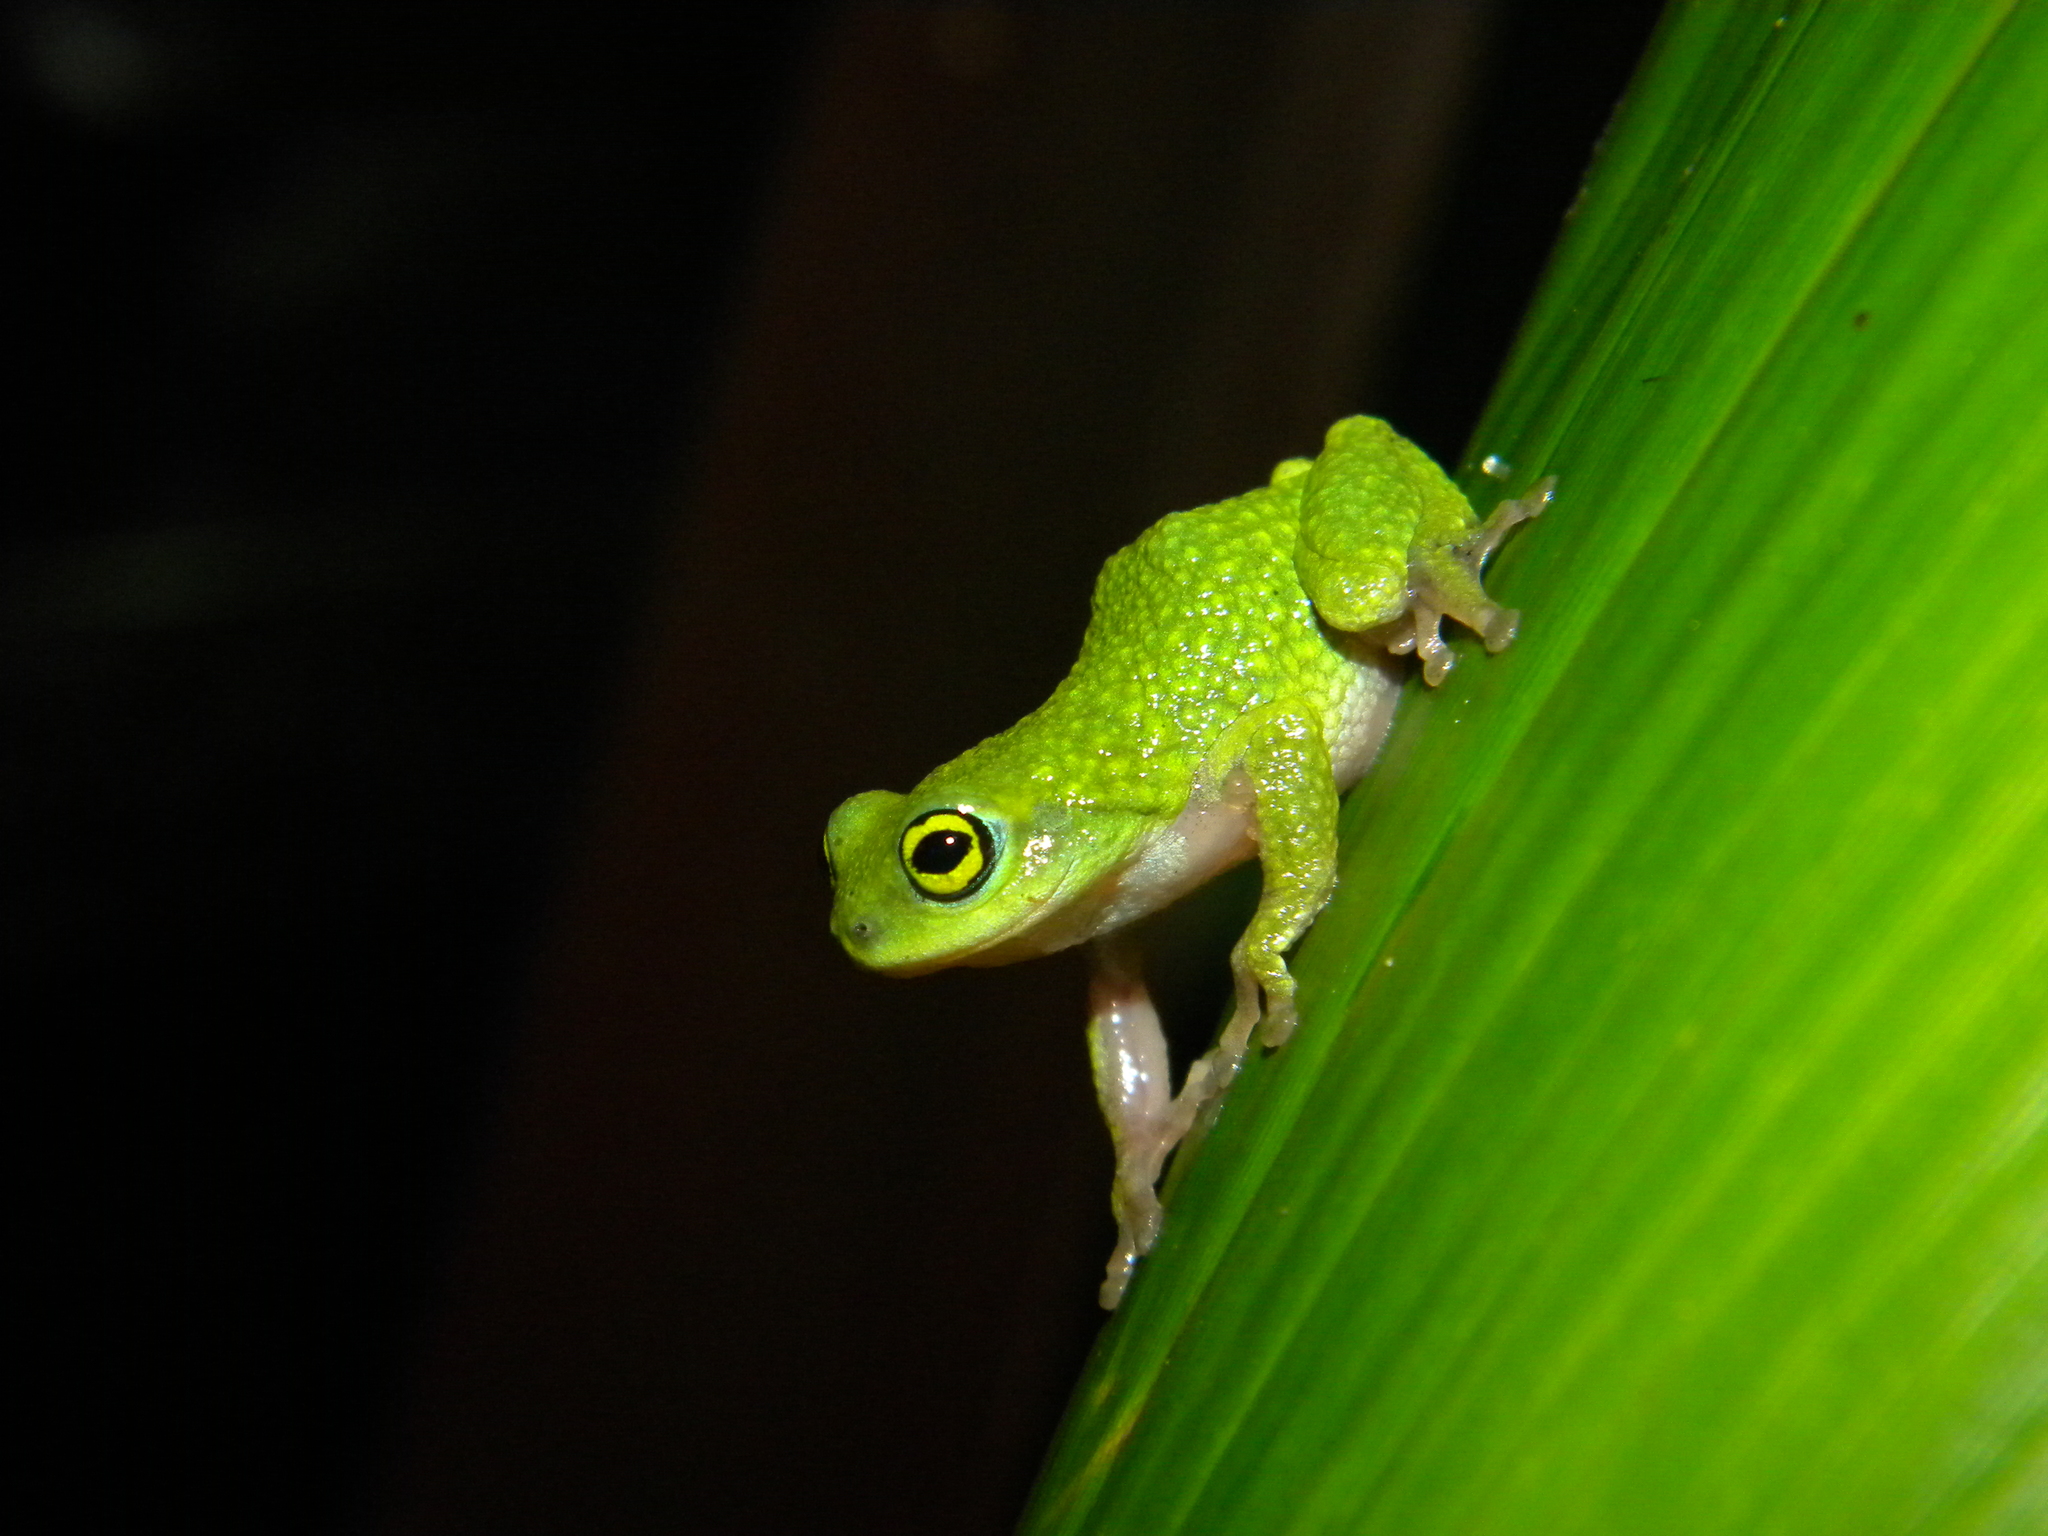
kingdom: Animalia
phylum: Chordata
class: Amphibia
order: Anura
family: Rhacophoridae
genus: Raorchestes
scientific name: Raorchestes chalazodes
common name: Günther's bush frog
